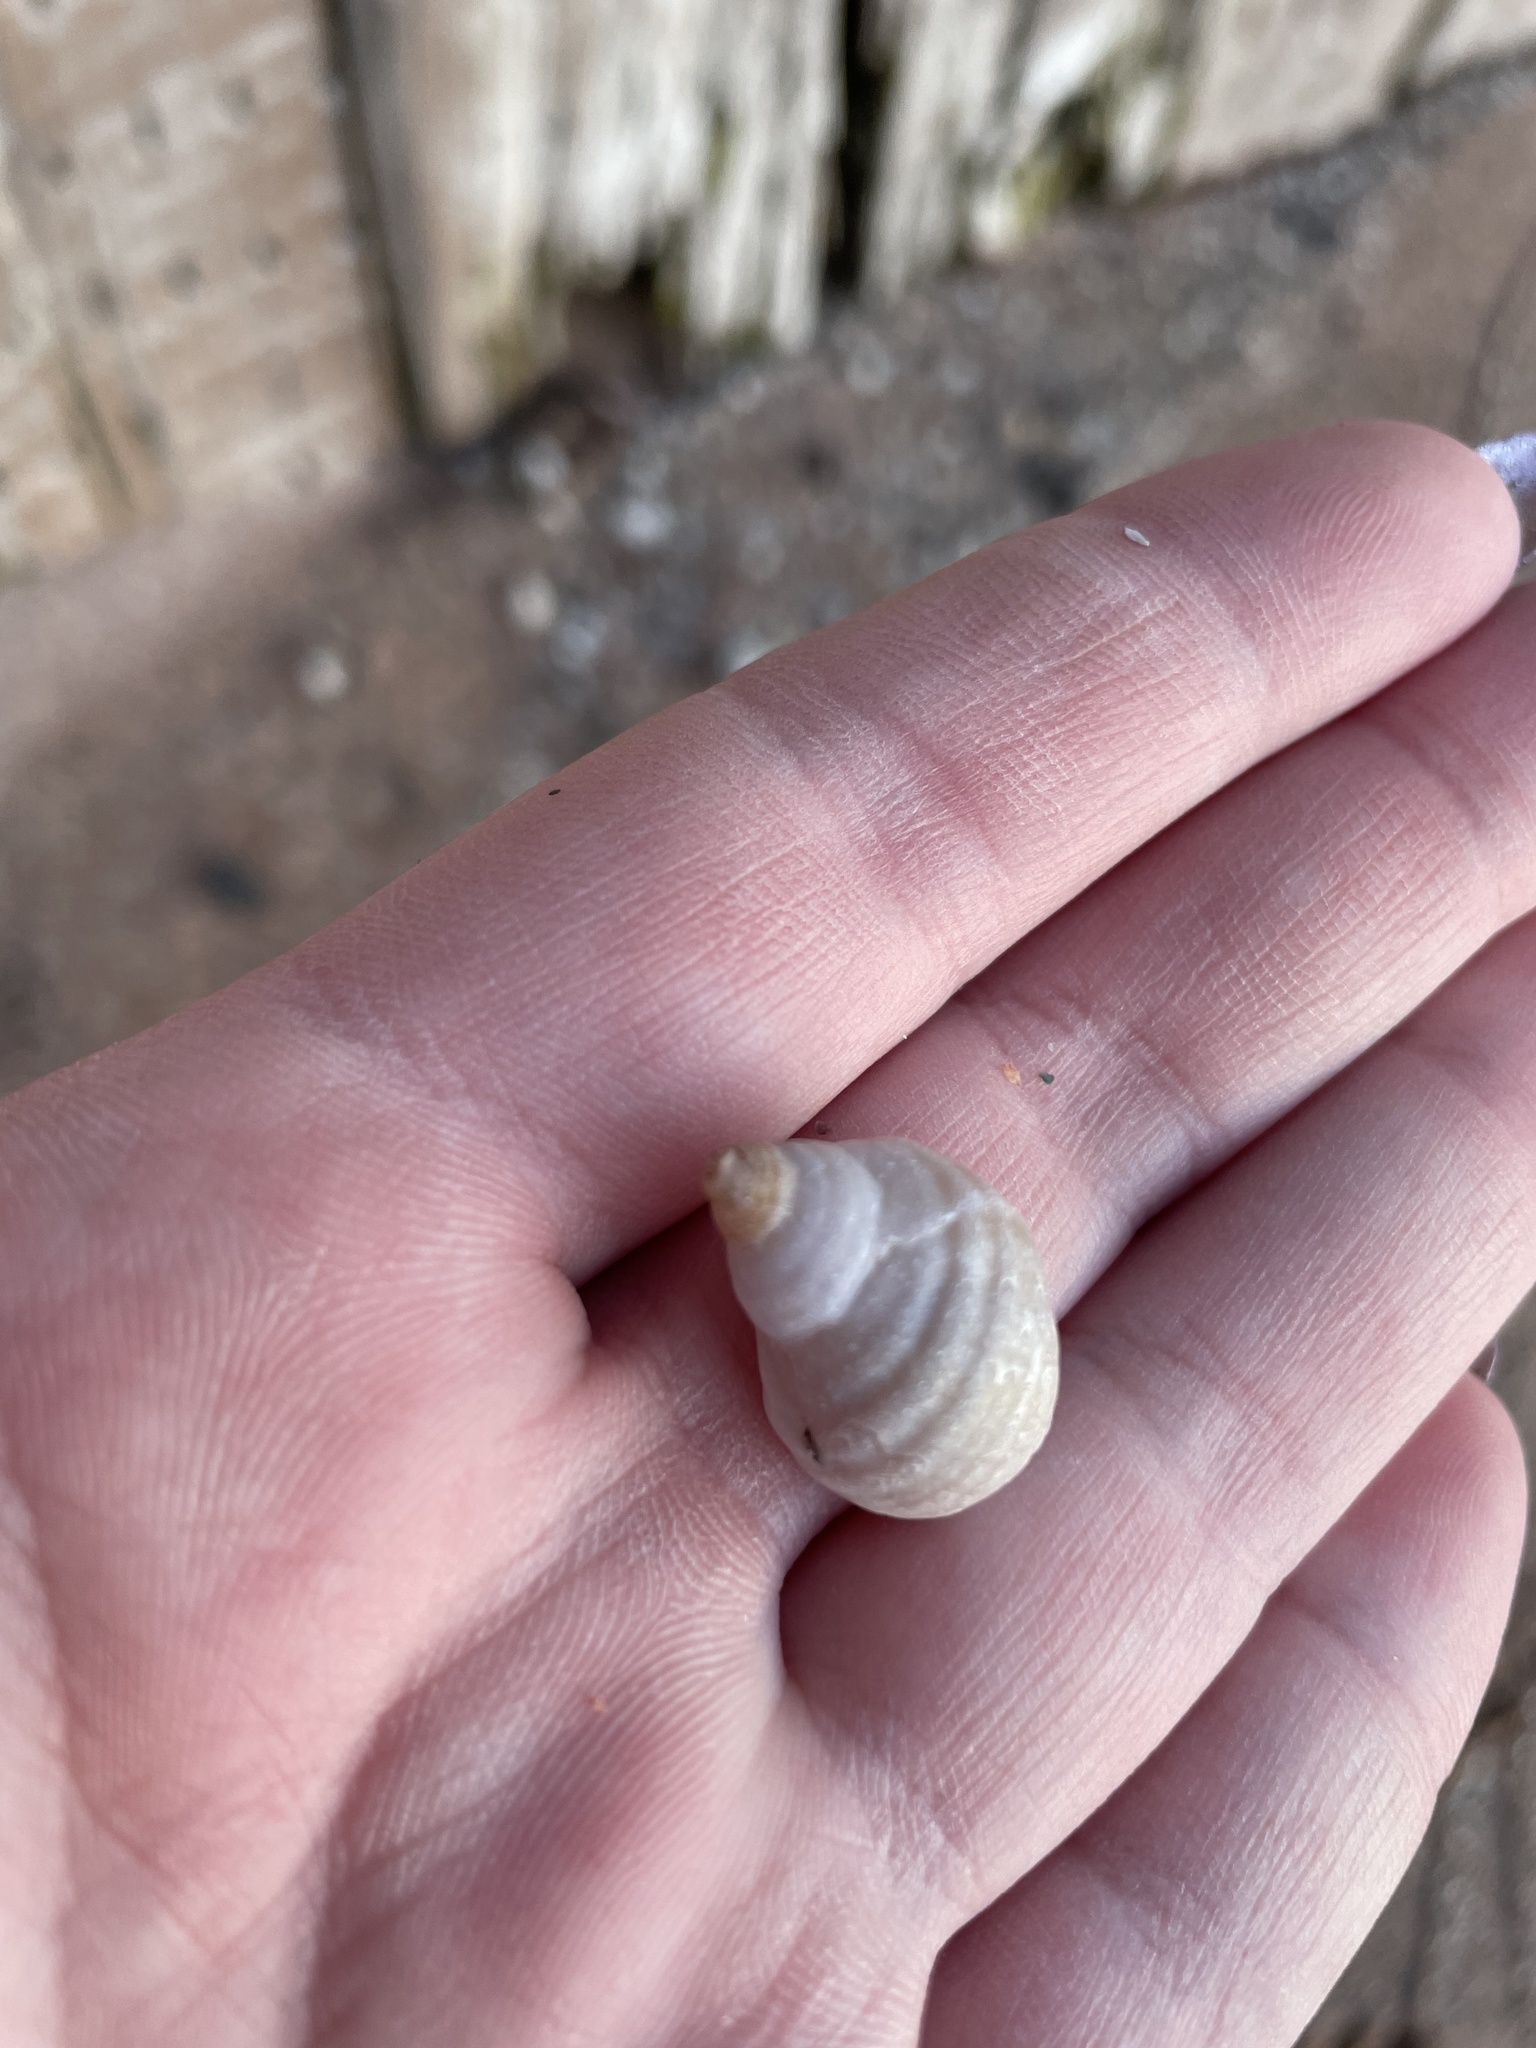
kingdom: Animalia
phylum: Mollusca
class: Gastropoda
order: Neogastropoda
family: Muricidae
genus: Nucella
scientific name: Nucella lapillus
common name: Dog whelk
